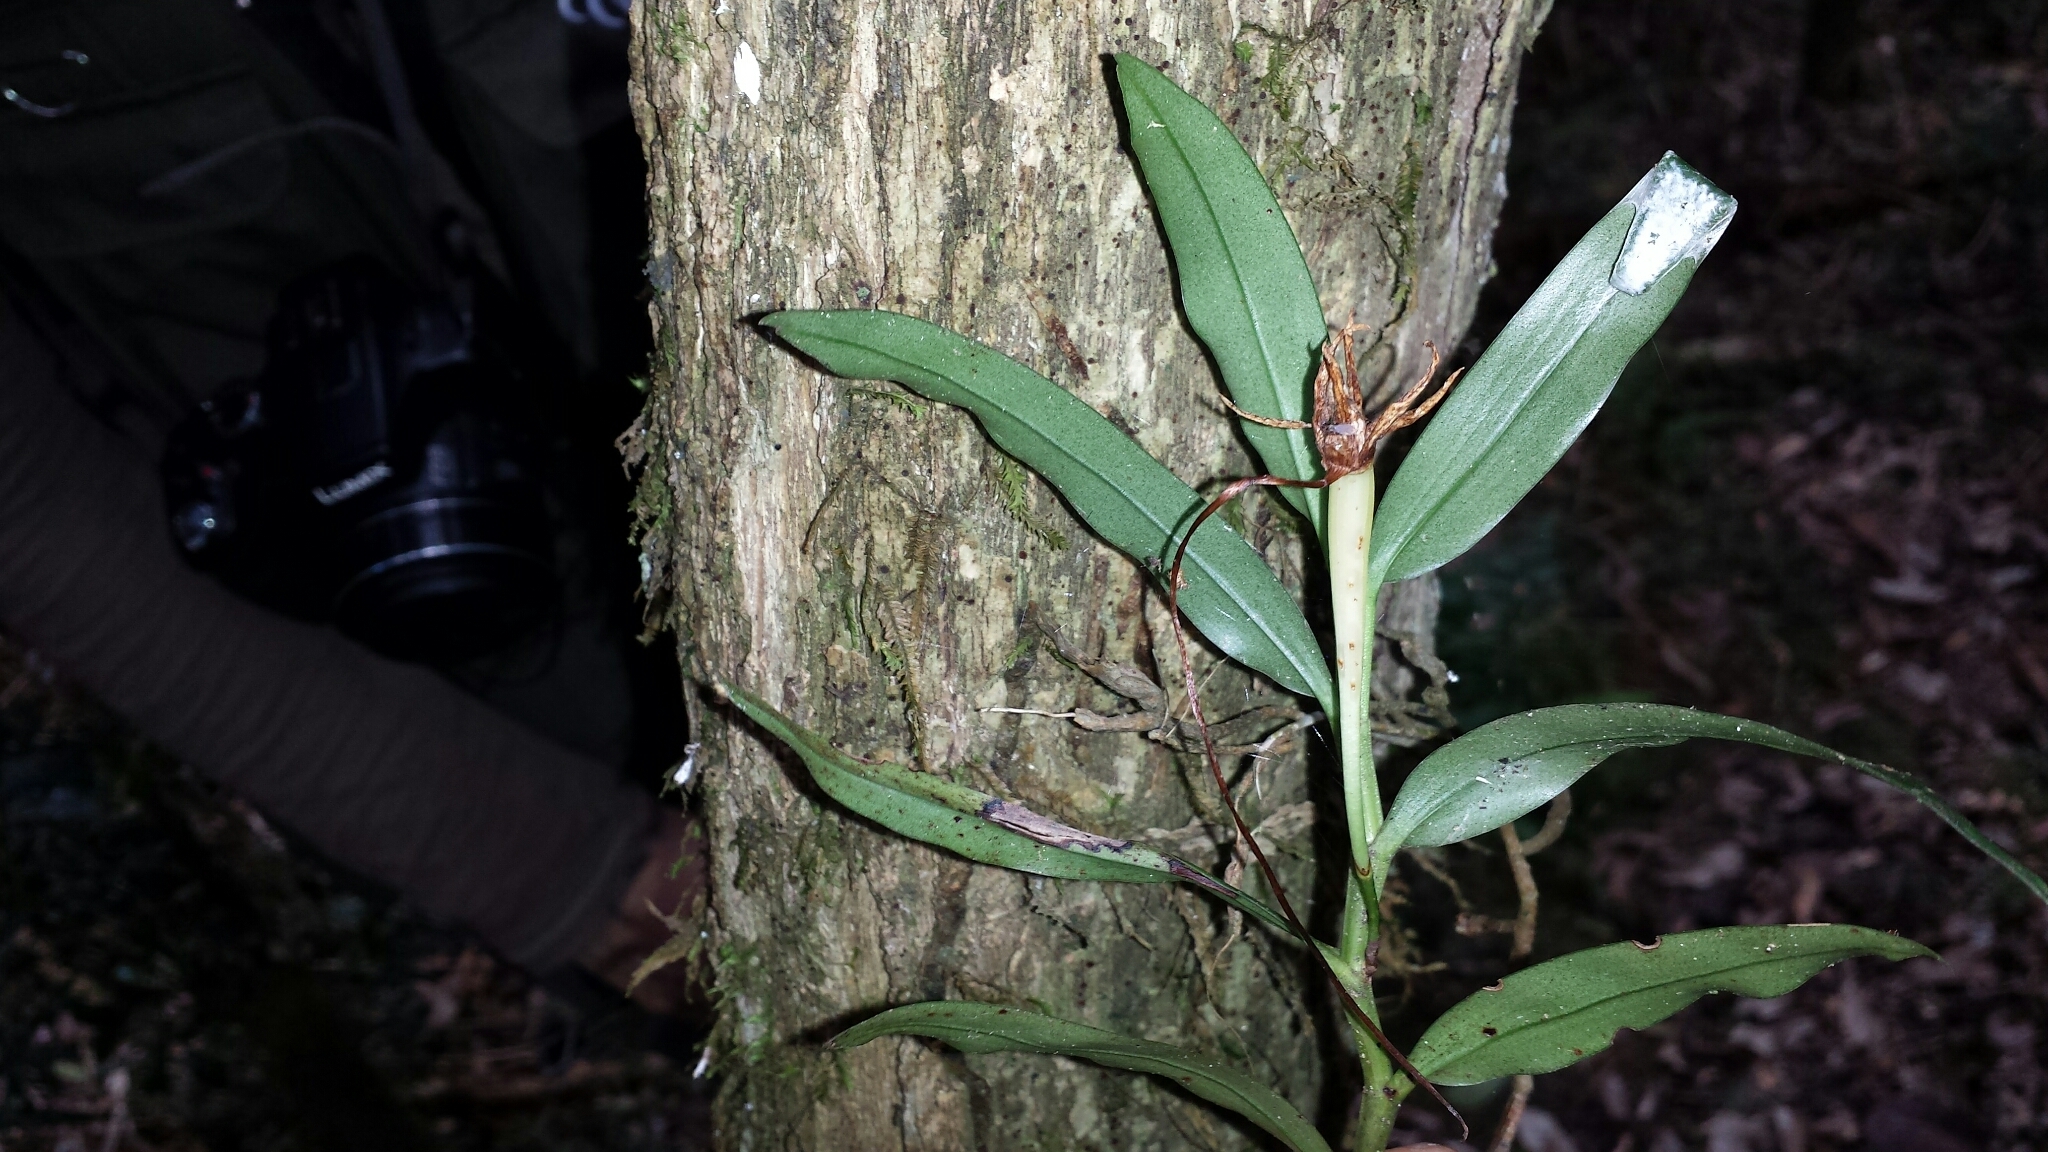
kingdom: Plantae
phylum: Tracheophyta
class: Liliopsida
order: Asparagales
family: Orchidaceae
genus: Angraecum
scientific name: Angraecum mauritianum
